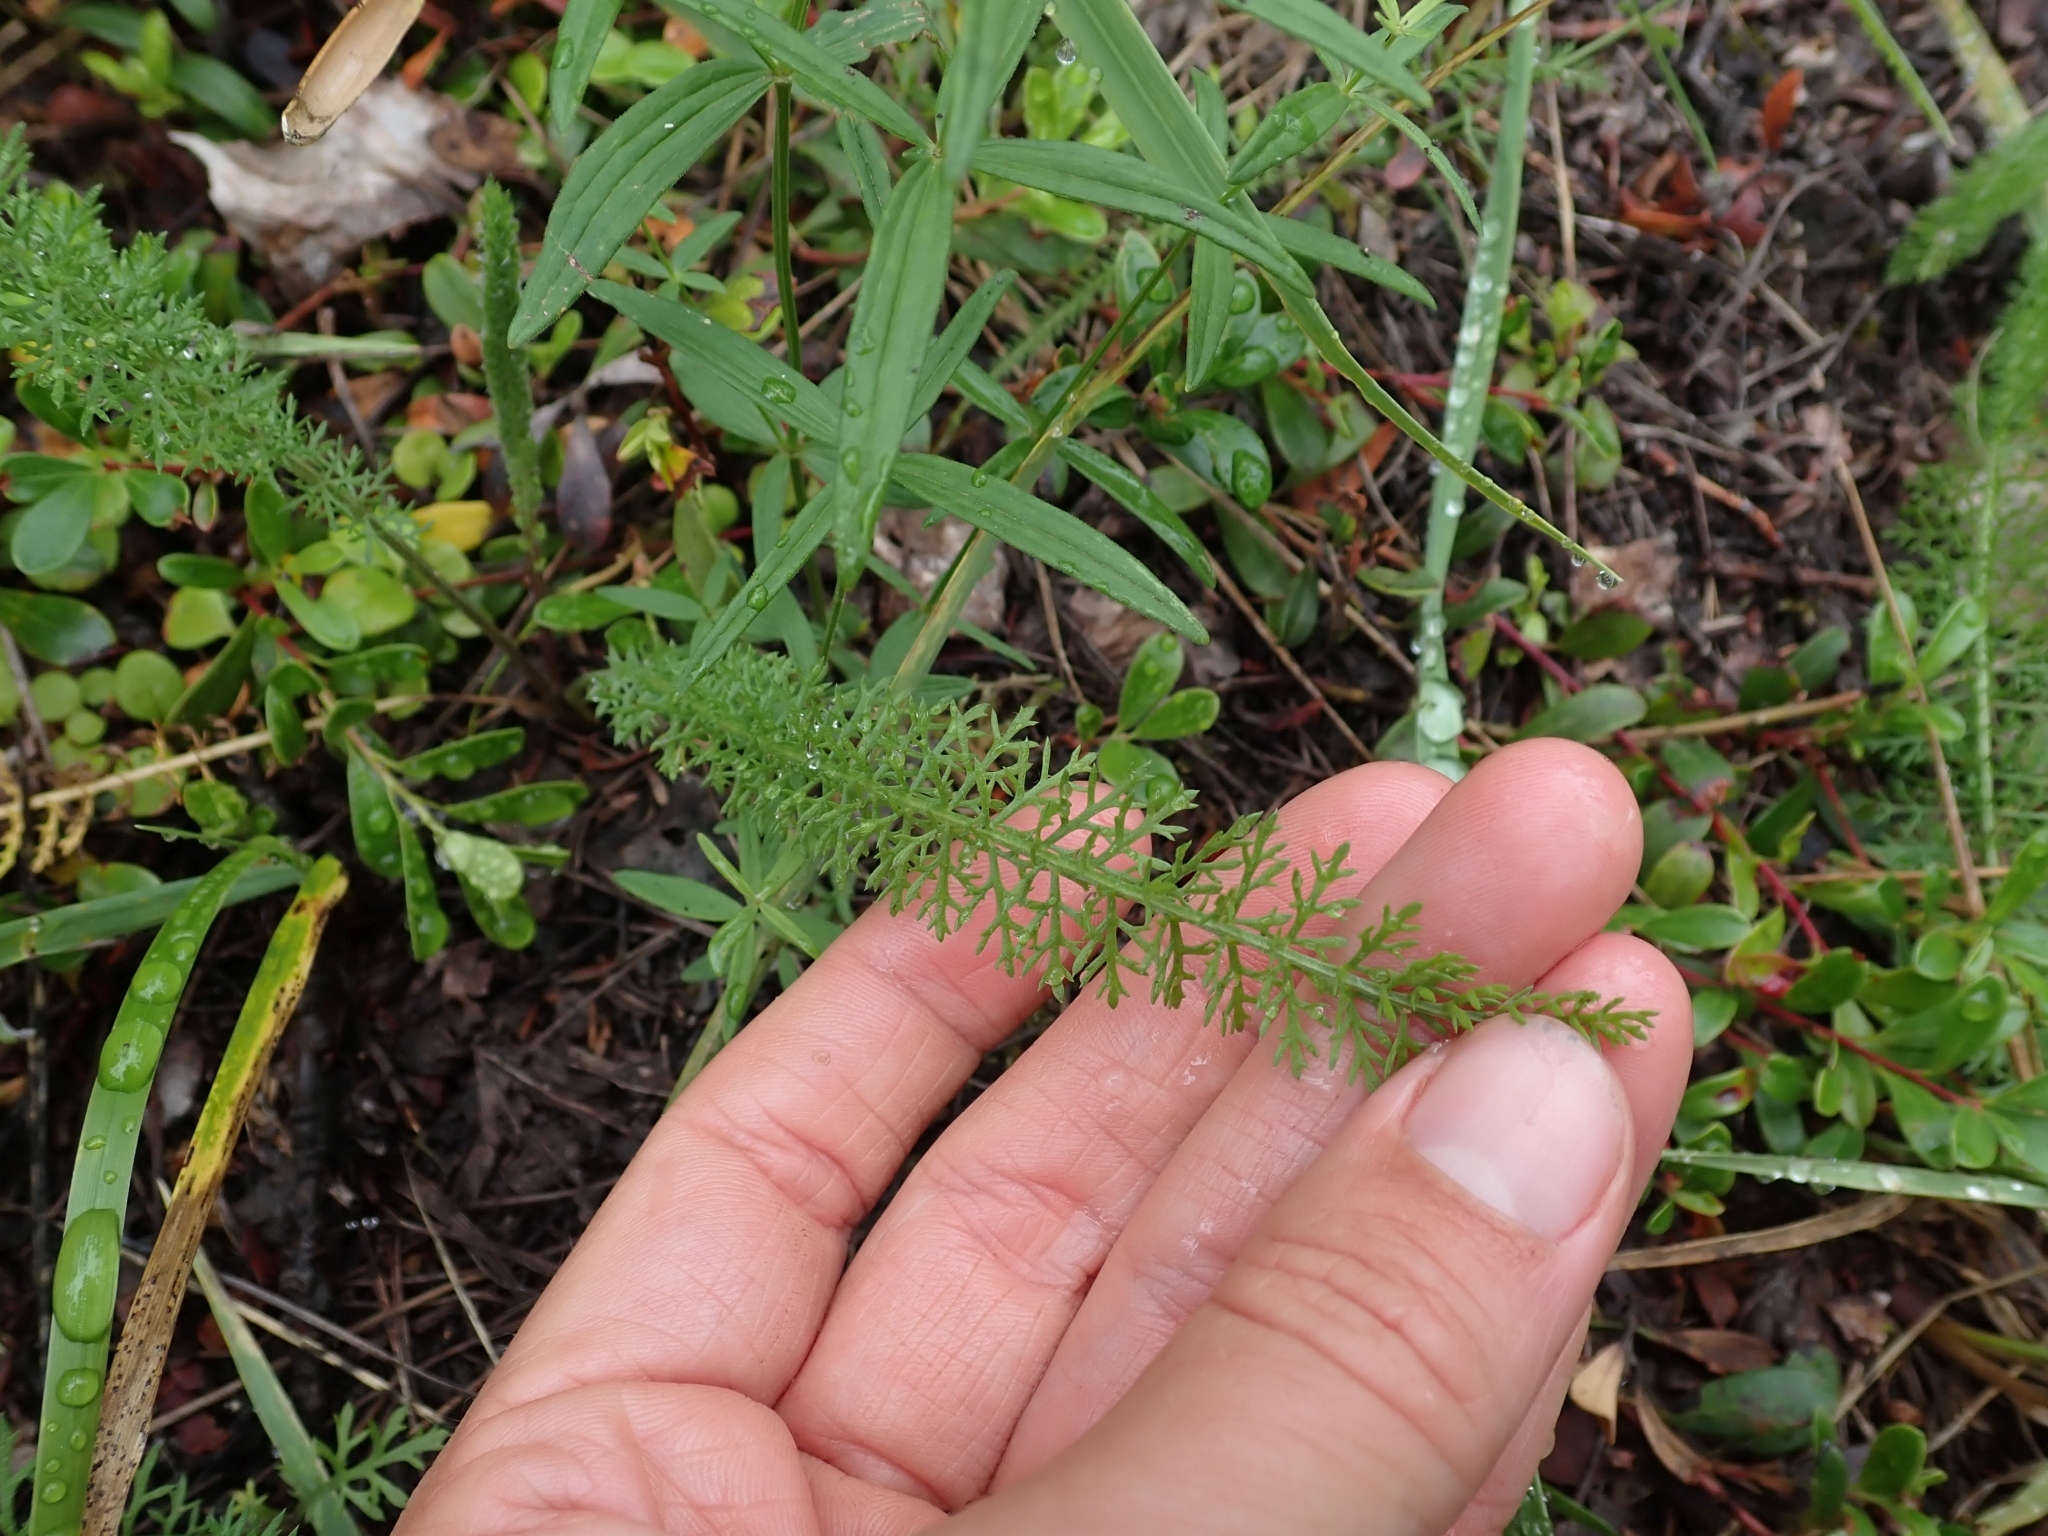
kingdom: Plantae
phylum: Tracheophyta
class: Magnoliopsida
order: Asterales
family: Asteraceae
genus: Achillea
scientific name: Achillea millefolium
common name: Yarrow
